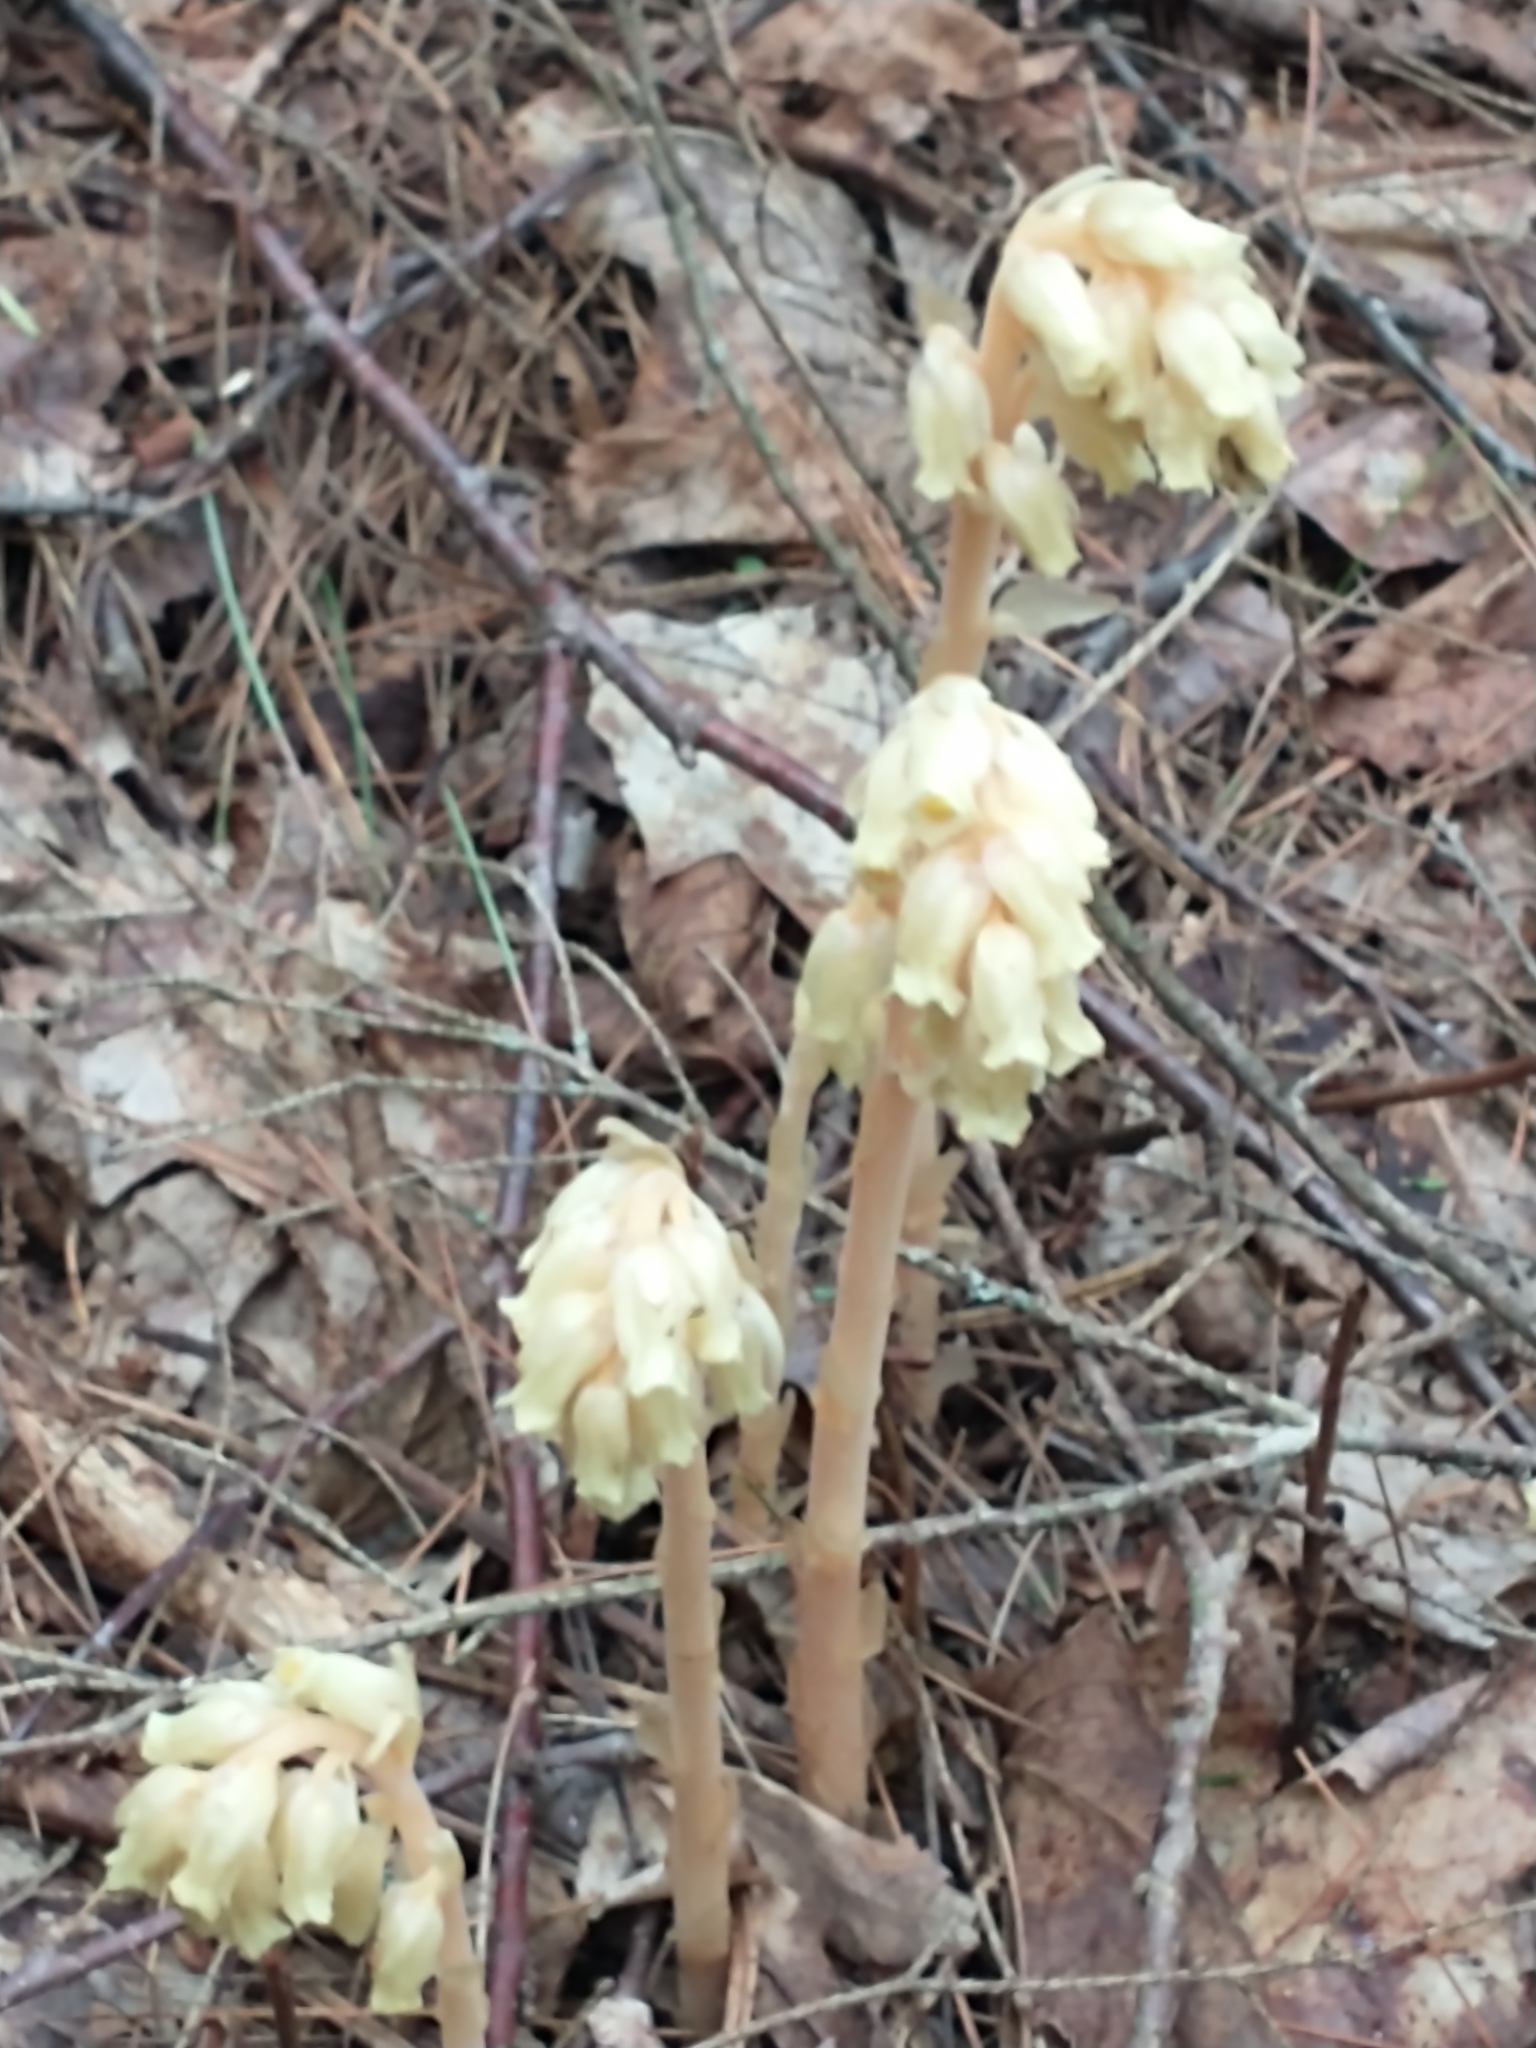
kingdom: Plantae
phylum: Tracheophyta
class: Magnoliopsida
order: Ericales
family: Ericaceae
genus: Hypopitys
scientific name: Hypopitys monotropa
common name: Yellow bird's-nest
